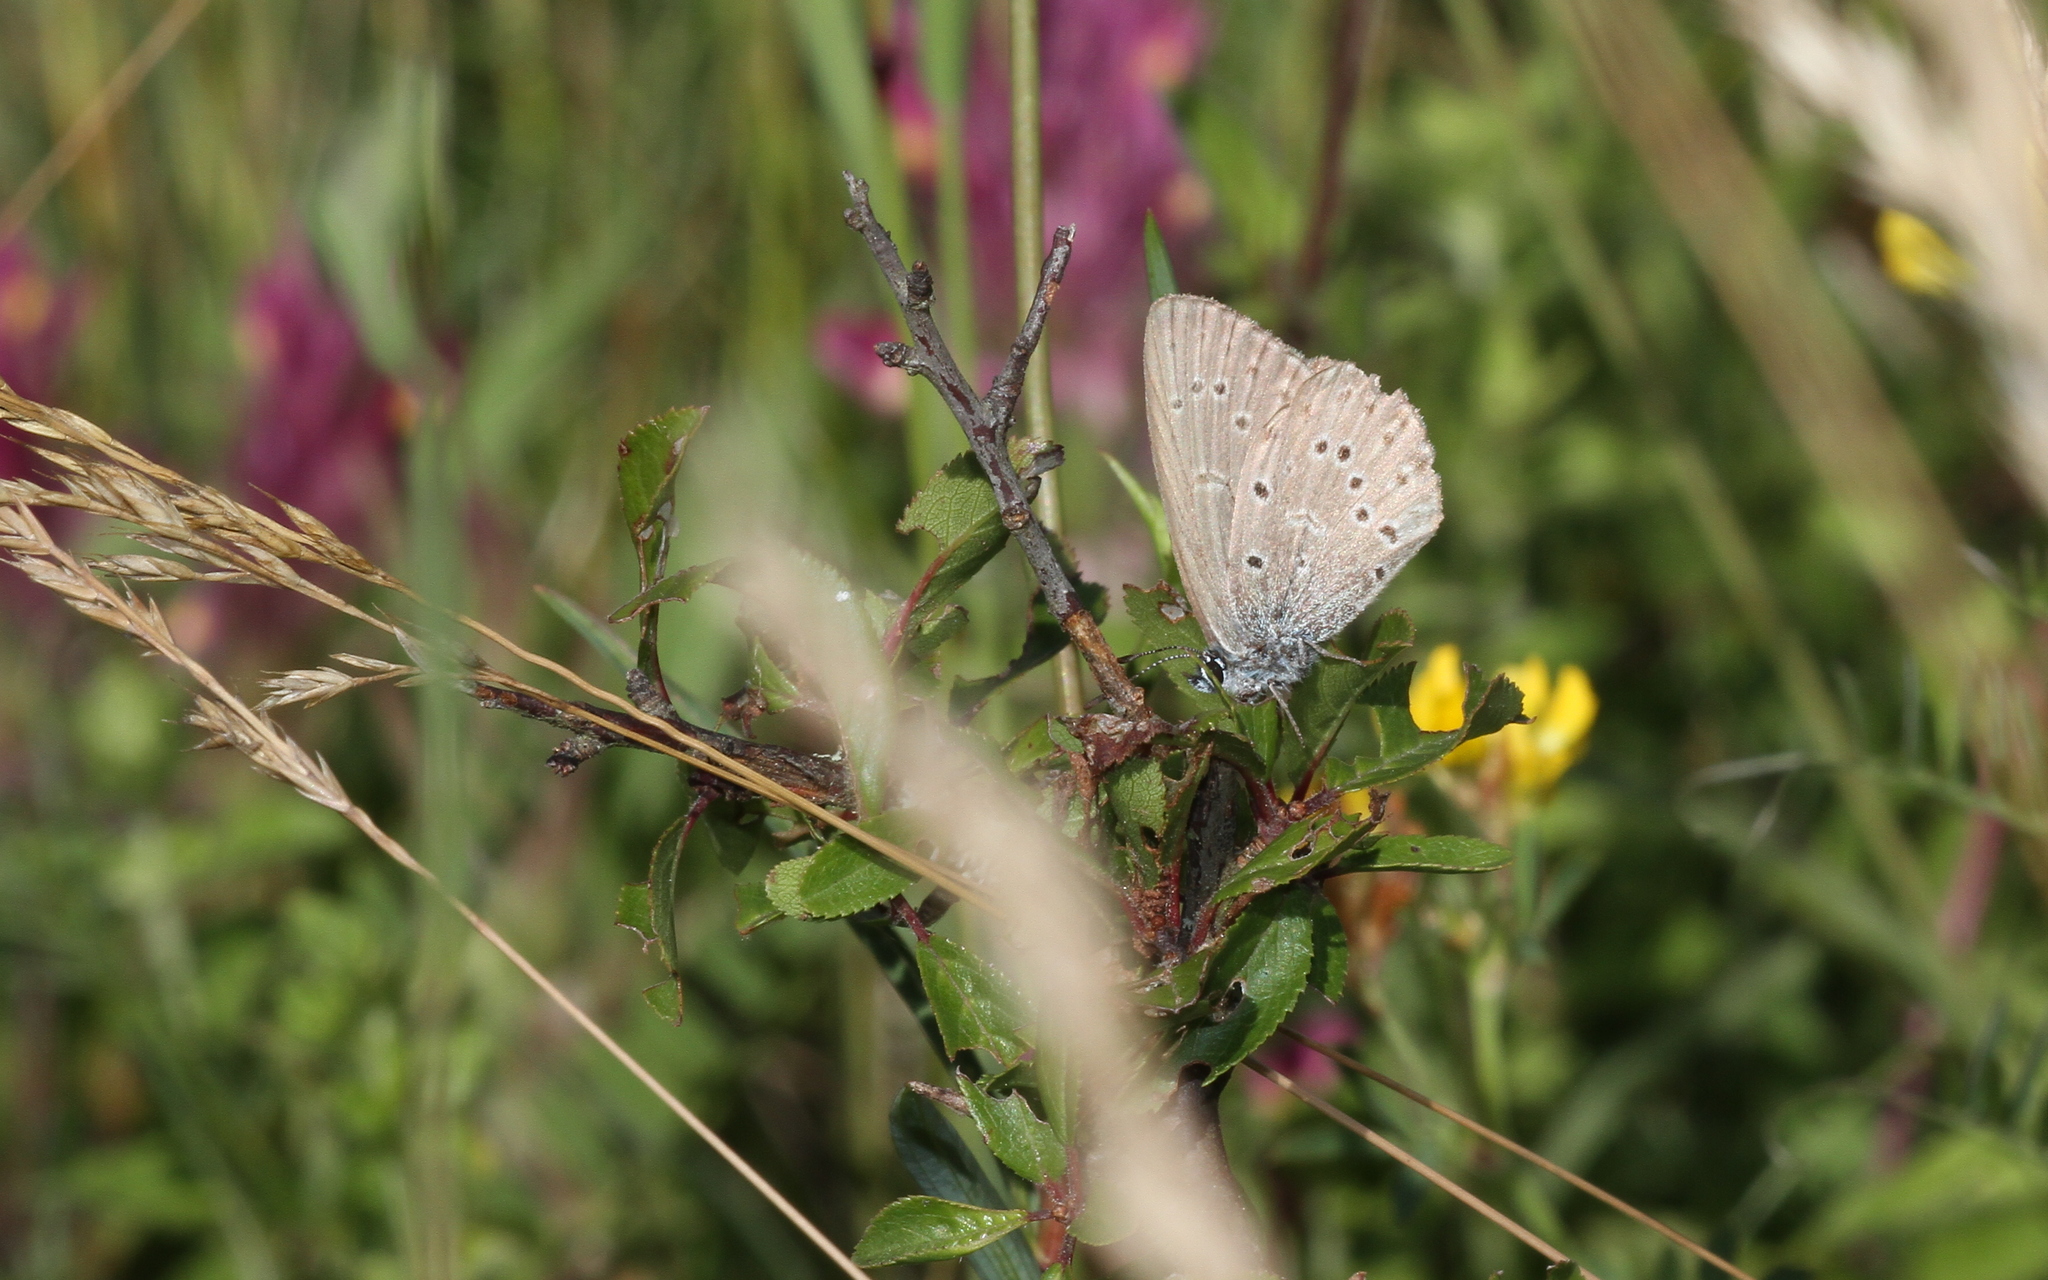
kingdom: Animalia
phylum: Arthropoda
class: Insecta
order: Lepidoptera
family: Lycaenidae
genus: Maculinea
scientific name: Maculinea alcon
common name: Alcon blue
